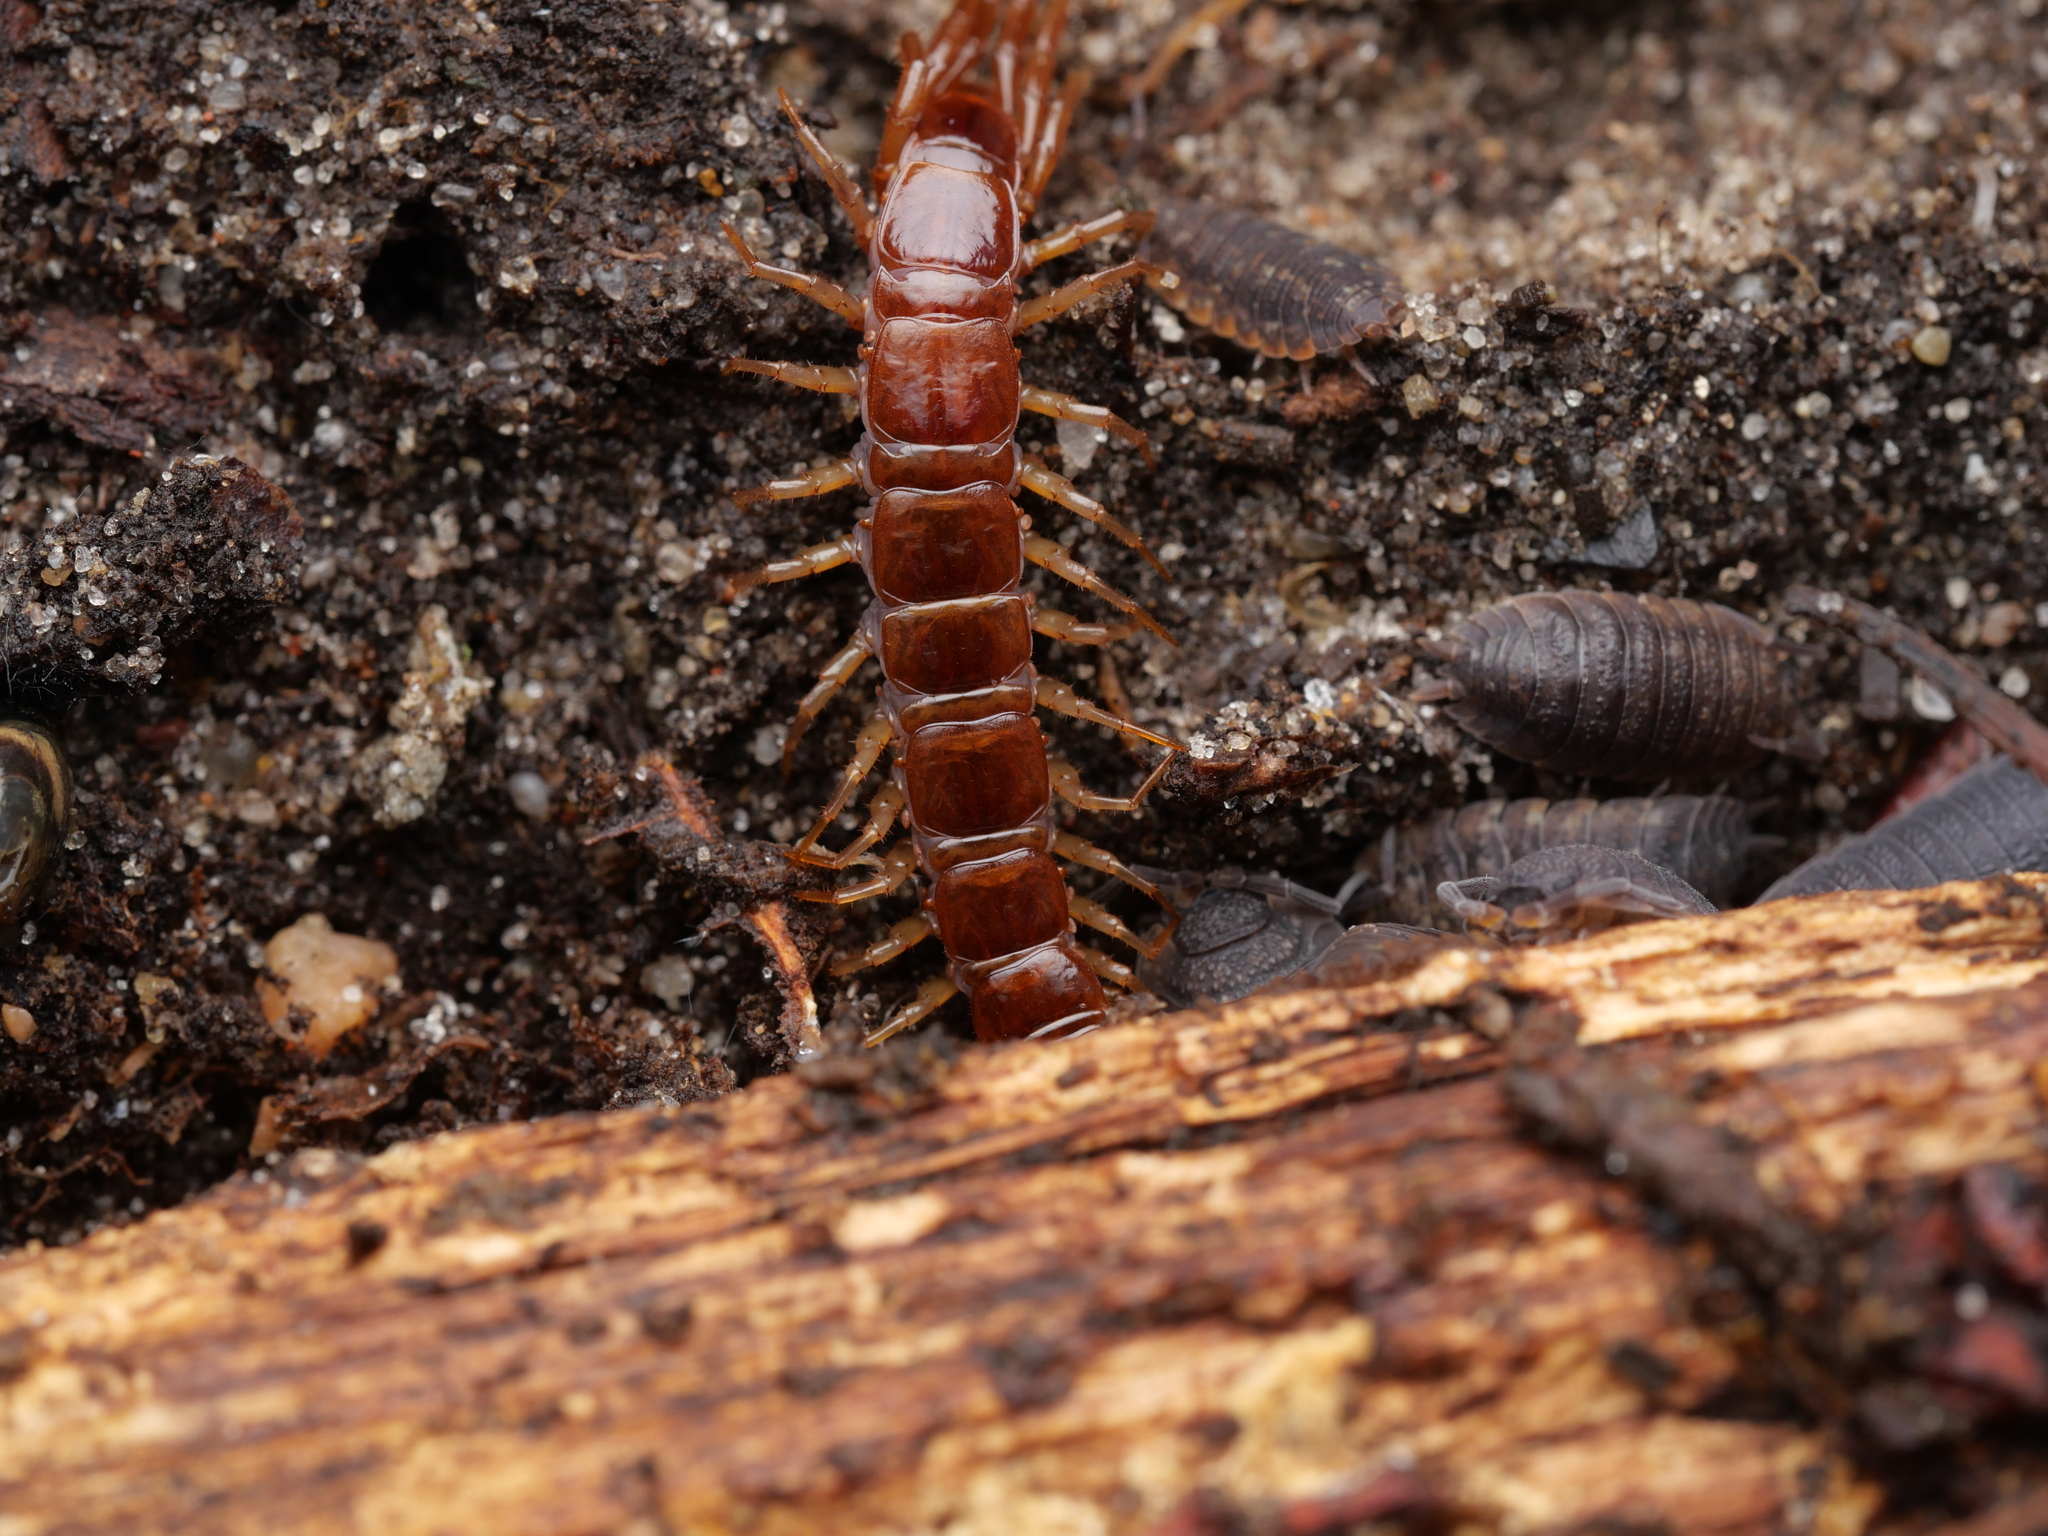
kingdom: Animalia
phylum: Arthropoda
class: Chilopoda
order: Lithobiomorpha
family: Lithobiidae
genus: Lithobius
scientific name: Lithobius forficatus
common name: Centipede
